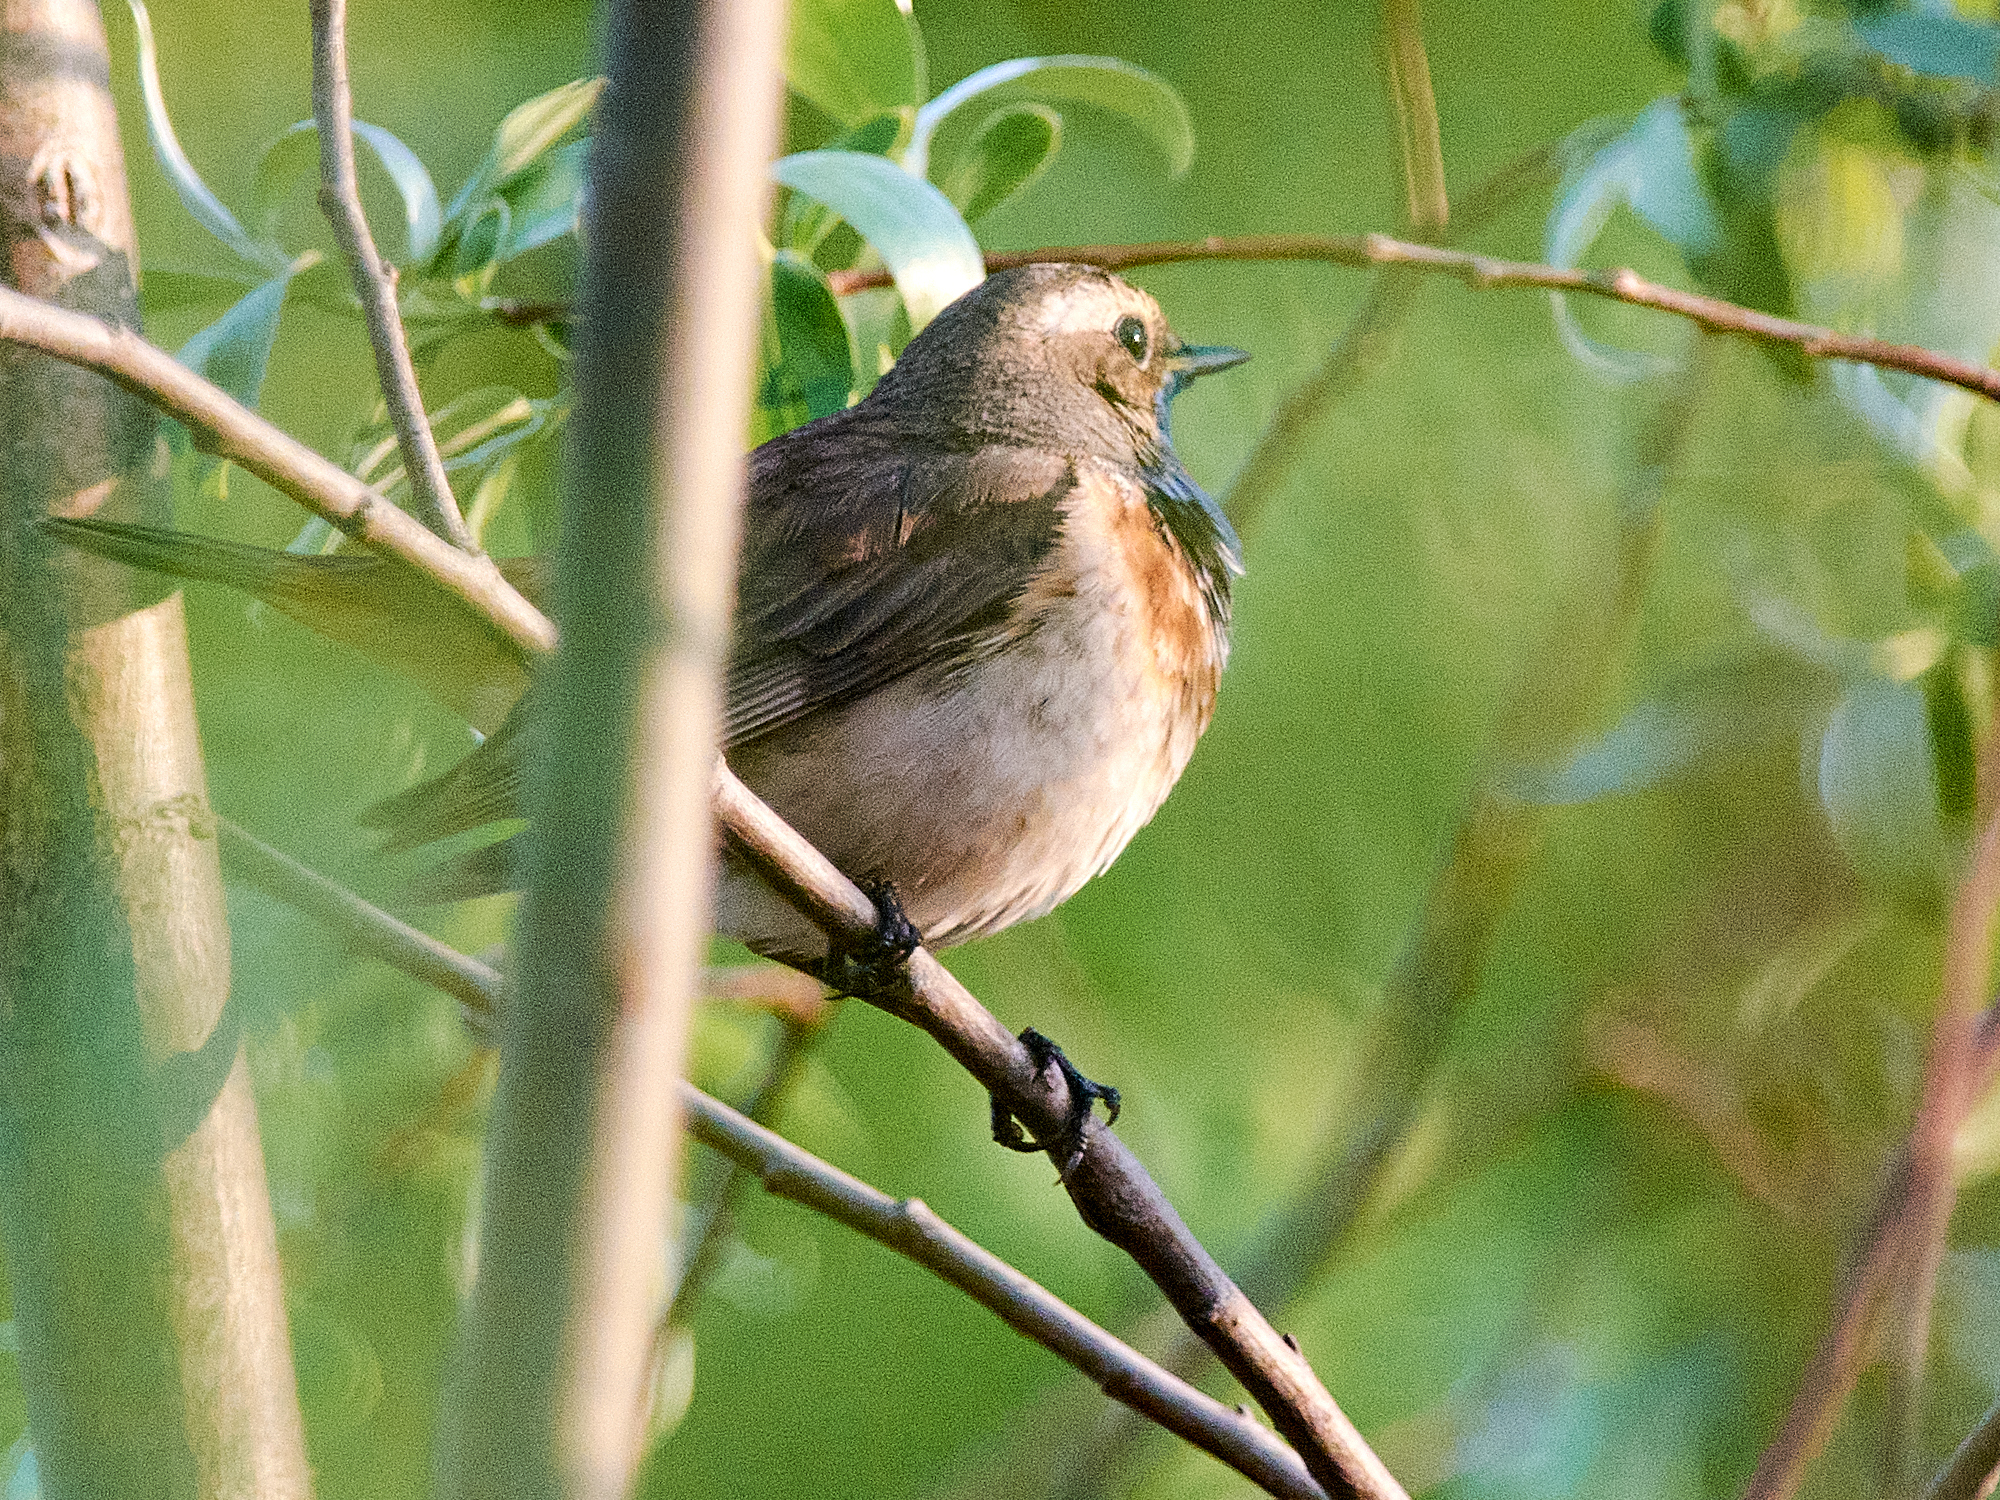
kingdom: Animalia
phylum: Chordata
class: Aves
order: Passeriformes
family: Muscicapidae
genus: Luscinia
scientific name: Luscinia svecica
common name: Bluethroat
